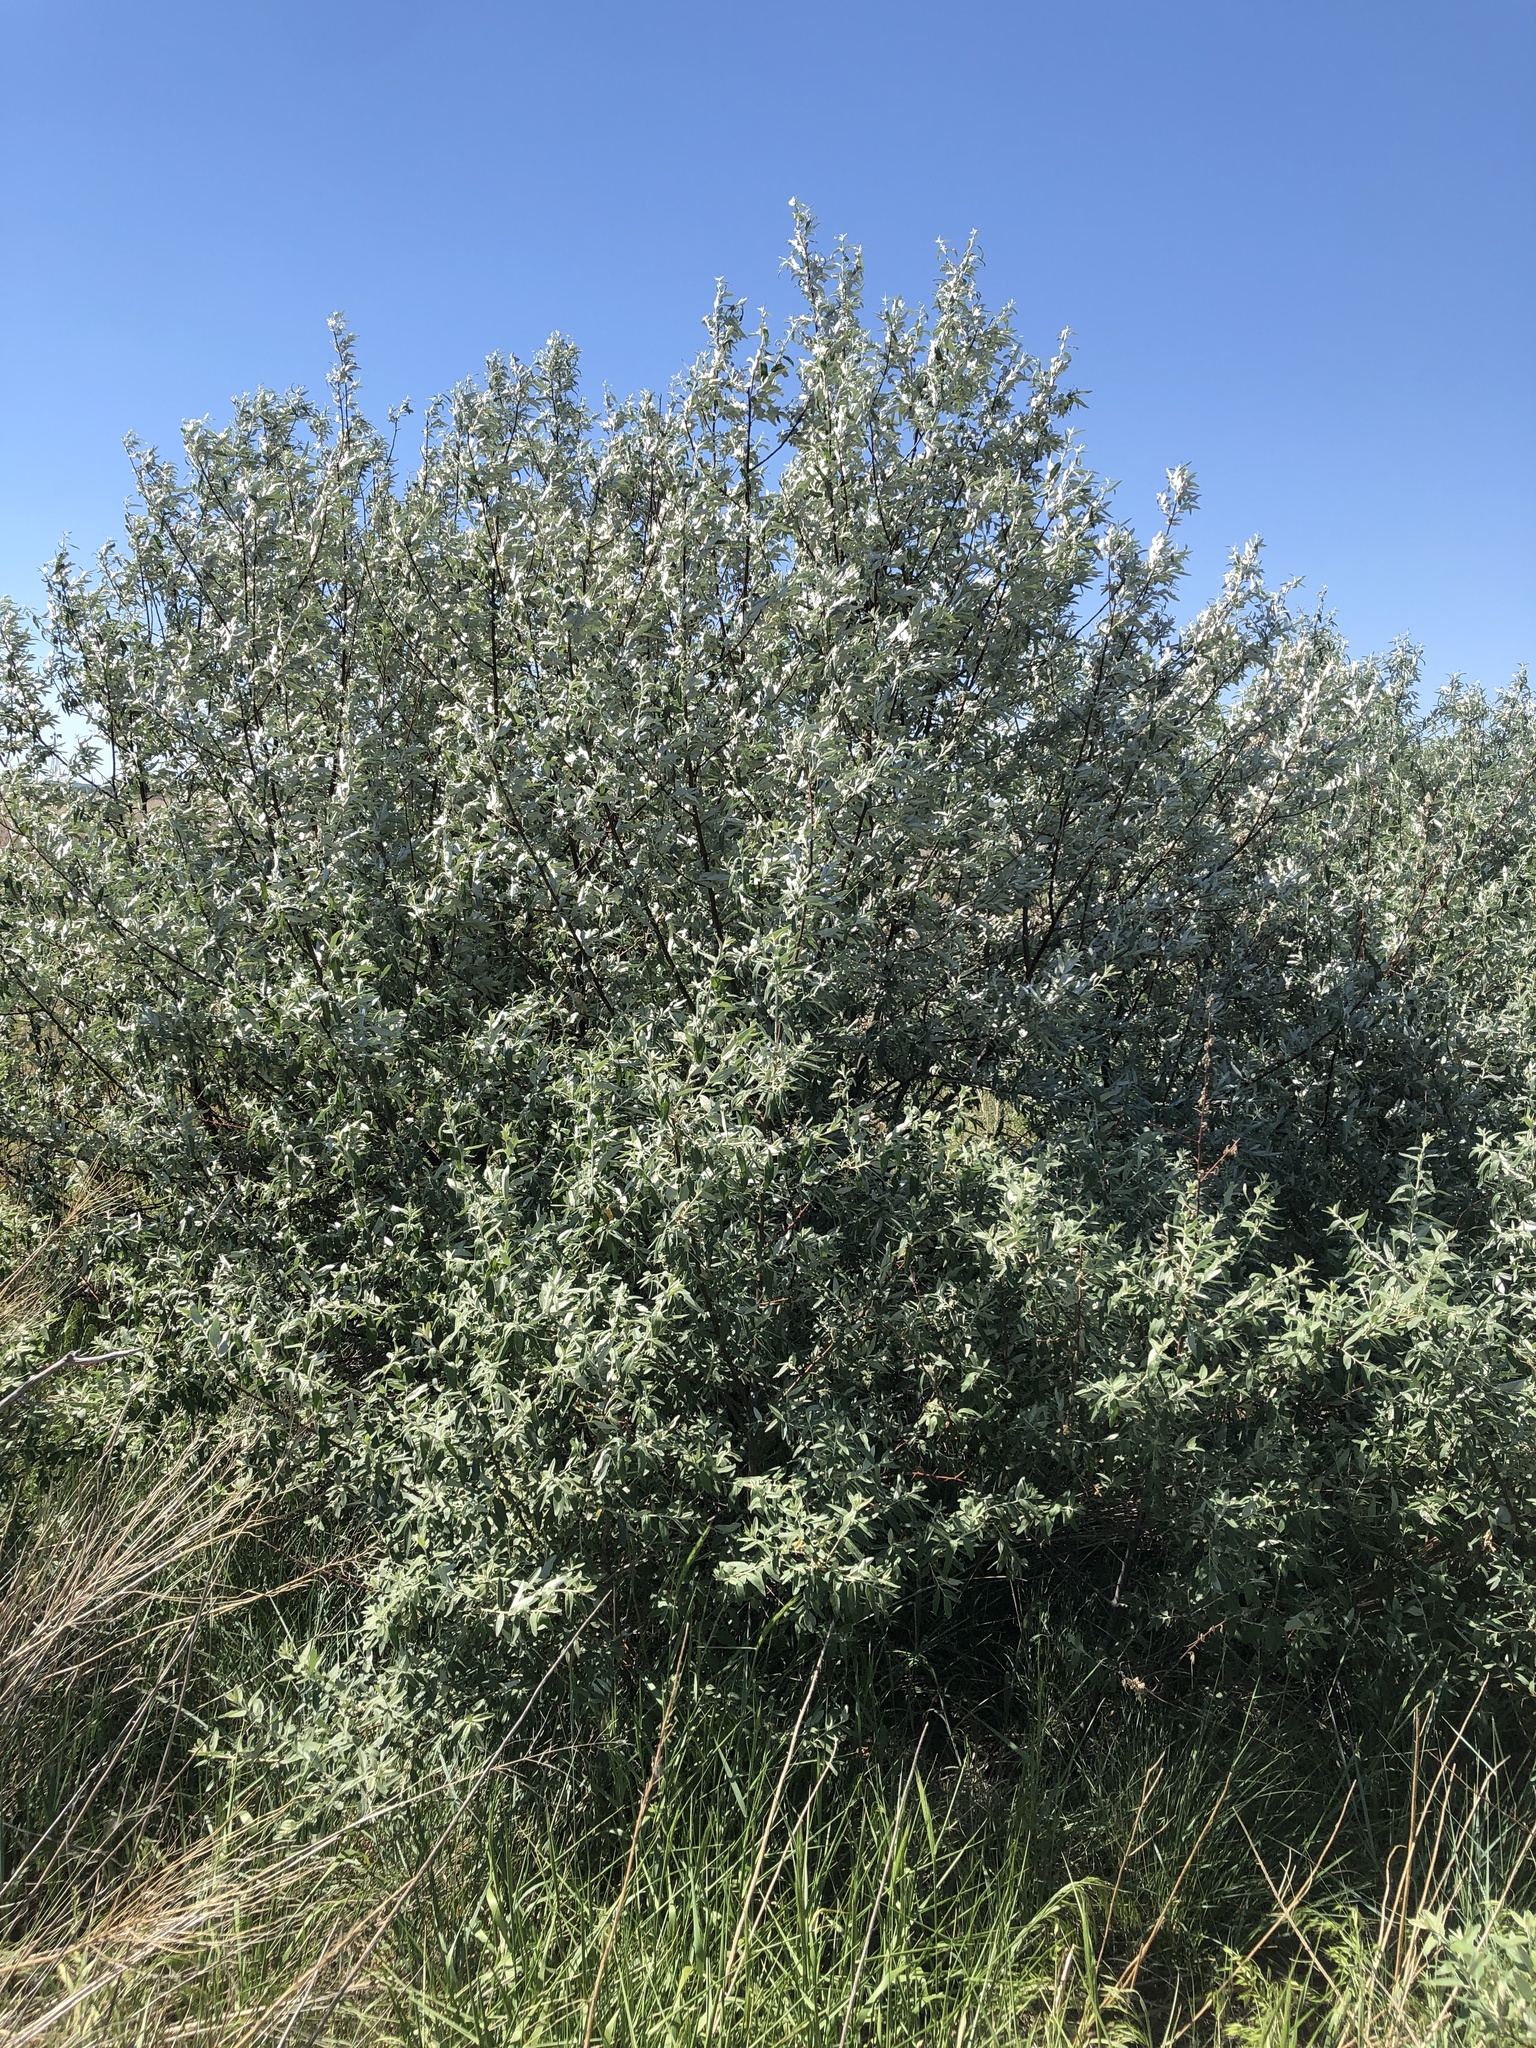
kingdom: Plantae
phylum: Tracheophyta
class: Magnoliopsida
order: Rosales
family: Elaeagnaceae
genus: Elaeagnus
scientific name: Elaeagnus angustifolia
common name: Russian olive
